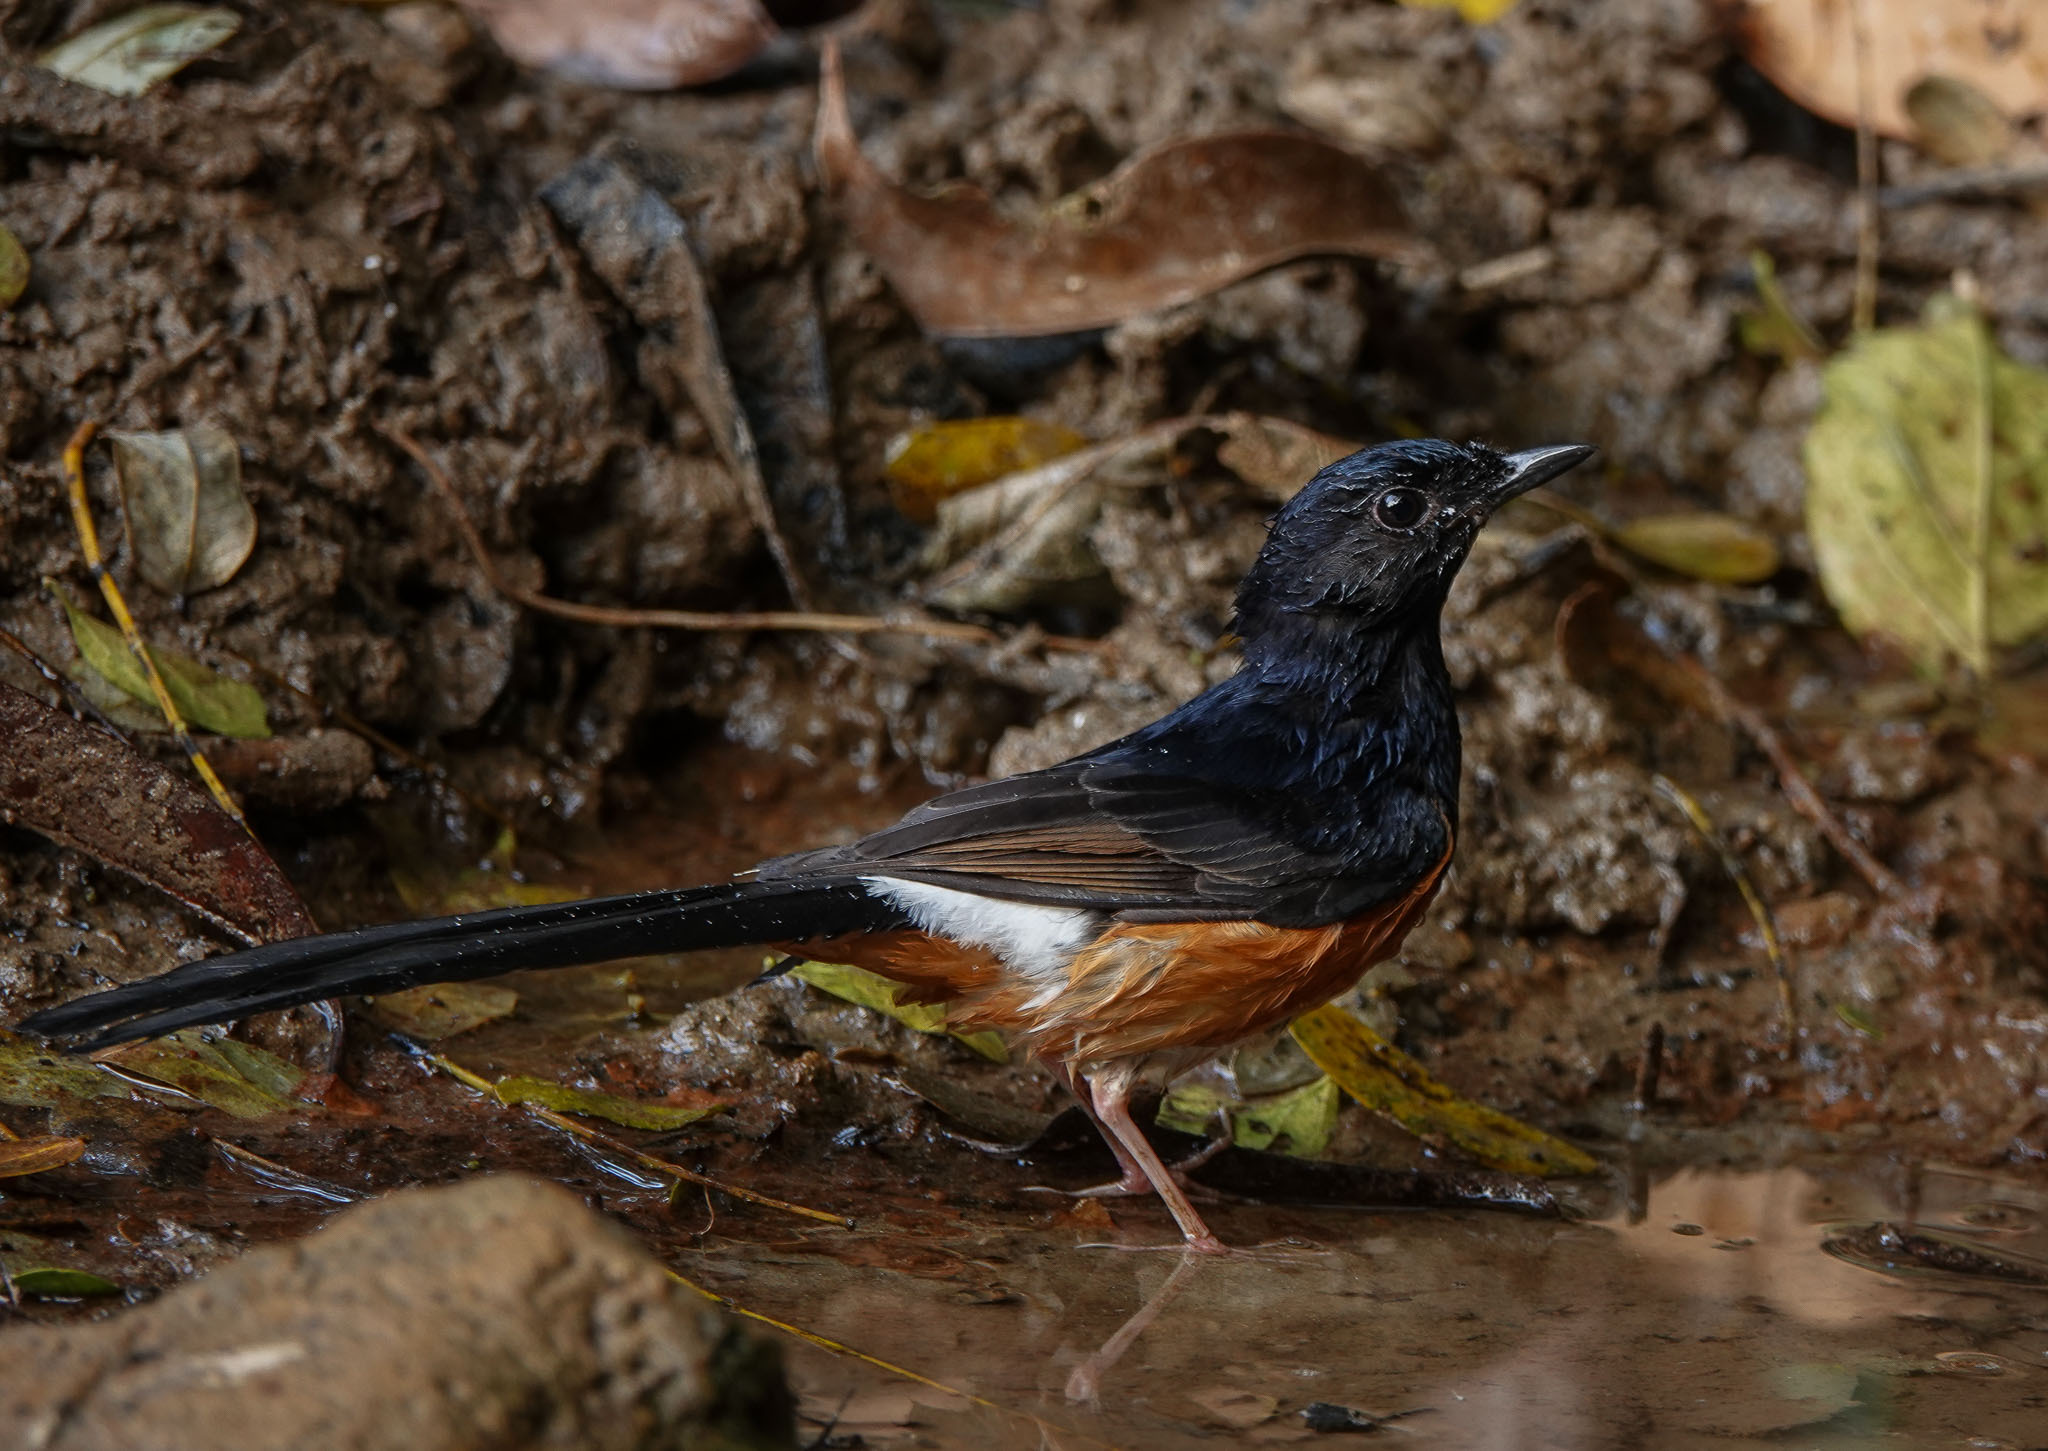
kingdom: Animalia
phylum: Chordata
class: Aves
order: Passeriformes
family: Muscicapidae
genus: Copsychus
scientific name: Copsychus malabaricus
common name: White-rumped shama
